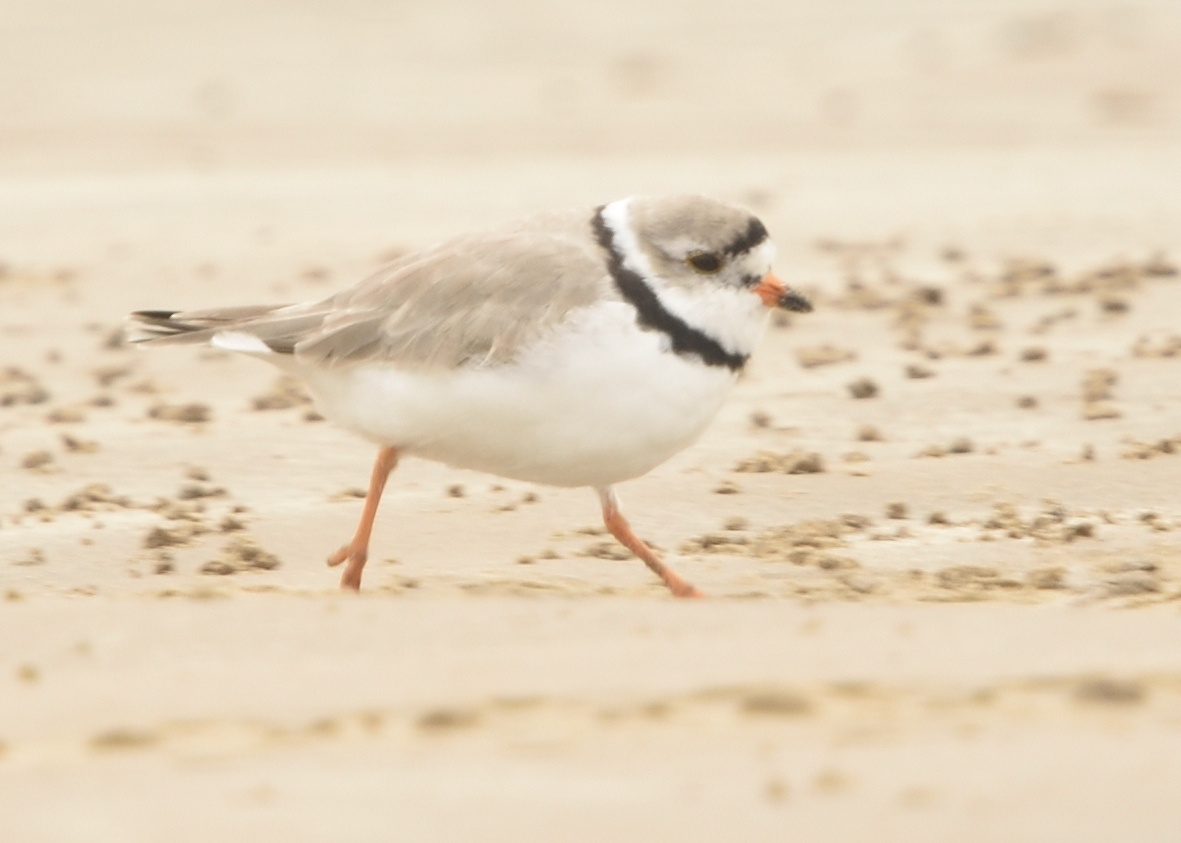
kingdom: Animalia
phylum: Chordata
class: Aves
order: Charadriiformes
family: Charadriidae
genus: Charadrius
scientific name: Charadrius melodus
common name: Piping plover
